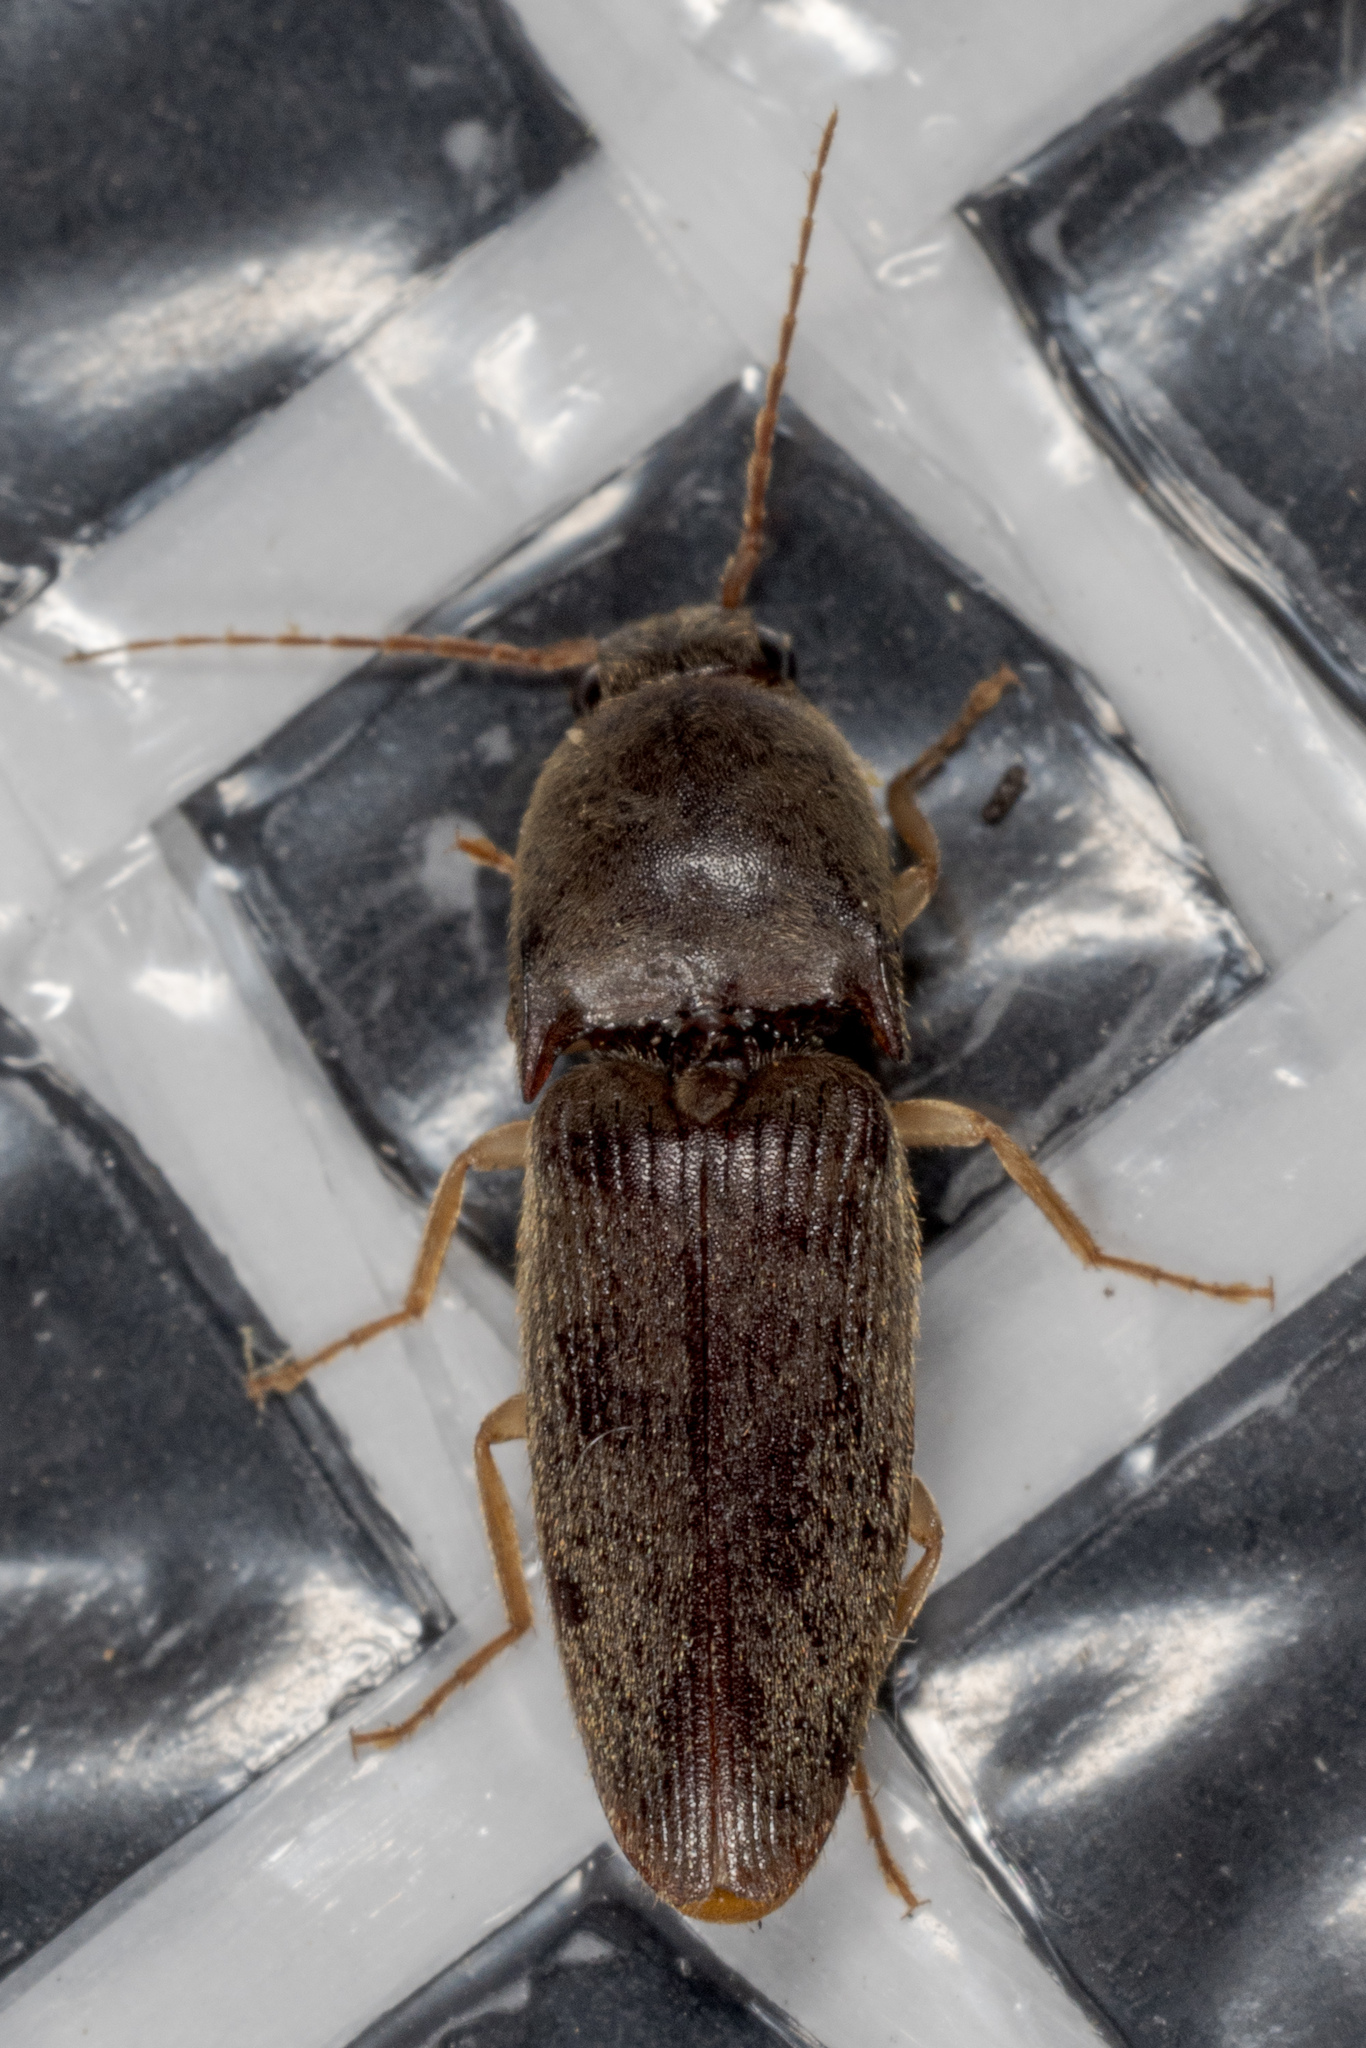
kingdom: Animalia
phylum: Arthropoda
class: Insecta
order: Coleoptera
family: Elateridae
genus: Conoderus
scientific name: Conoderus exsul
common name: Click beetle
